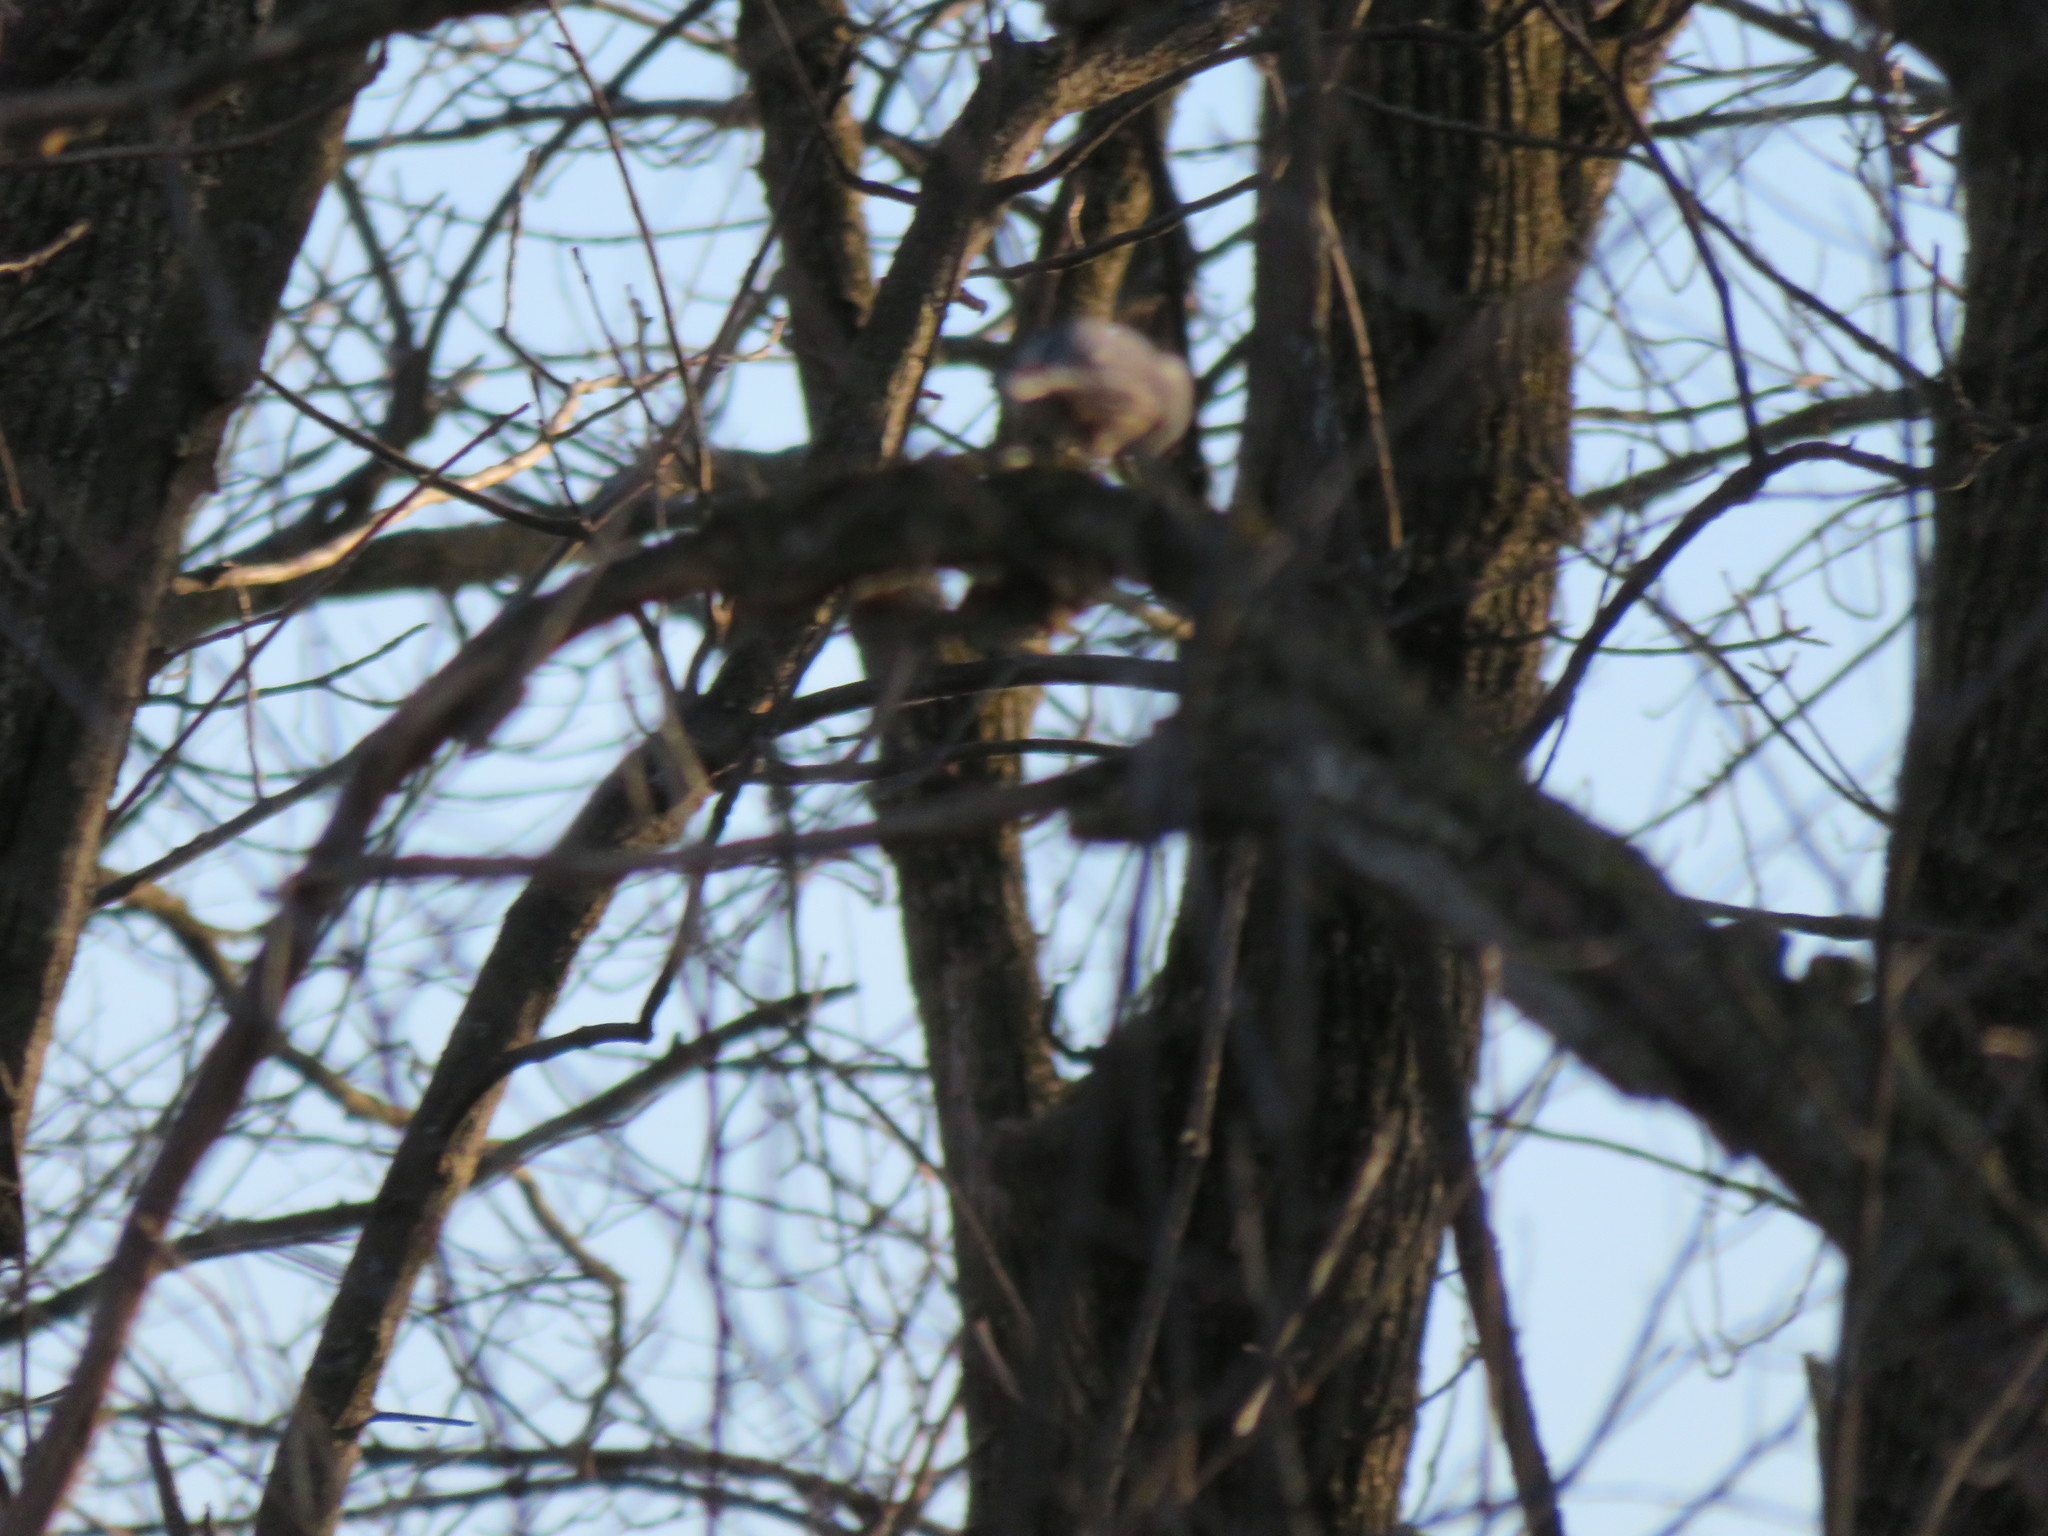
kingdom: Animalia
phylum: Chordata
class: Aves
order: Passeriformes
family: Sittidae
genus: Sitta
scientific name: Sitta carolinensis
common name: White-breasted nuthatch
